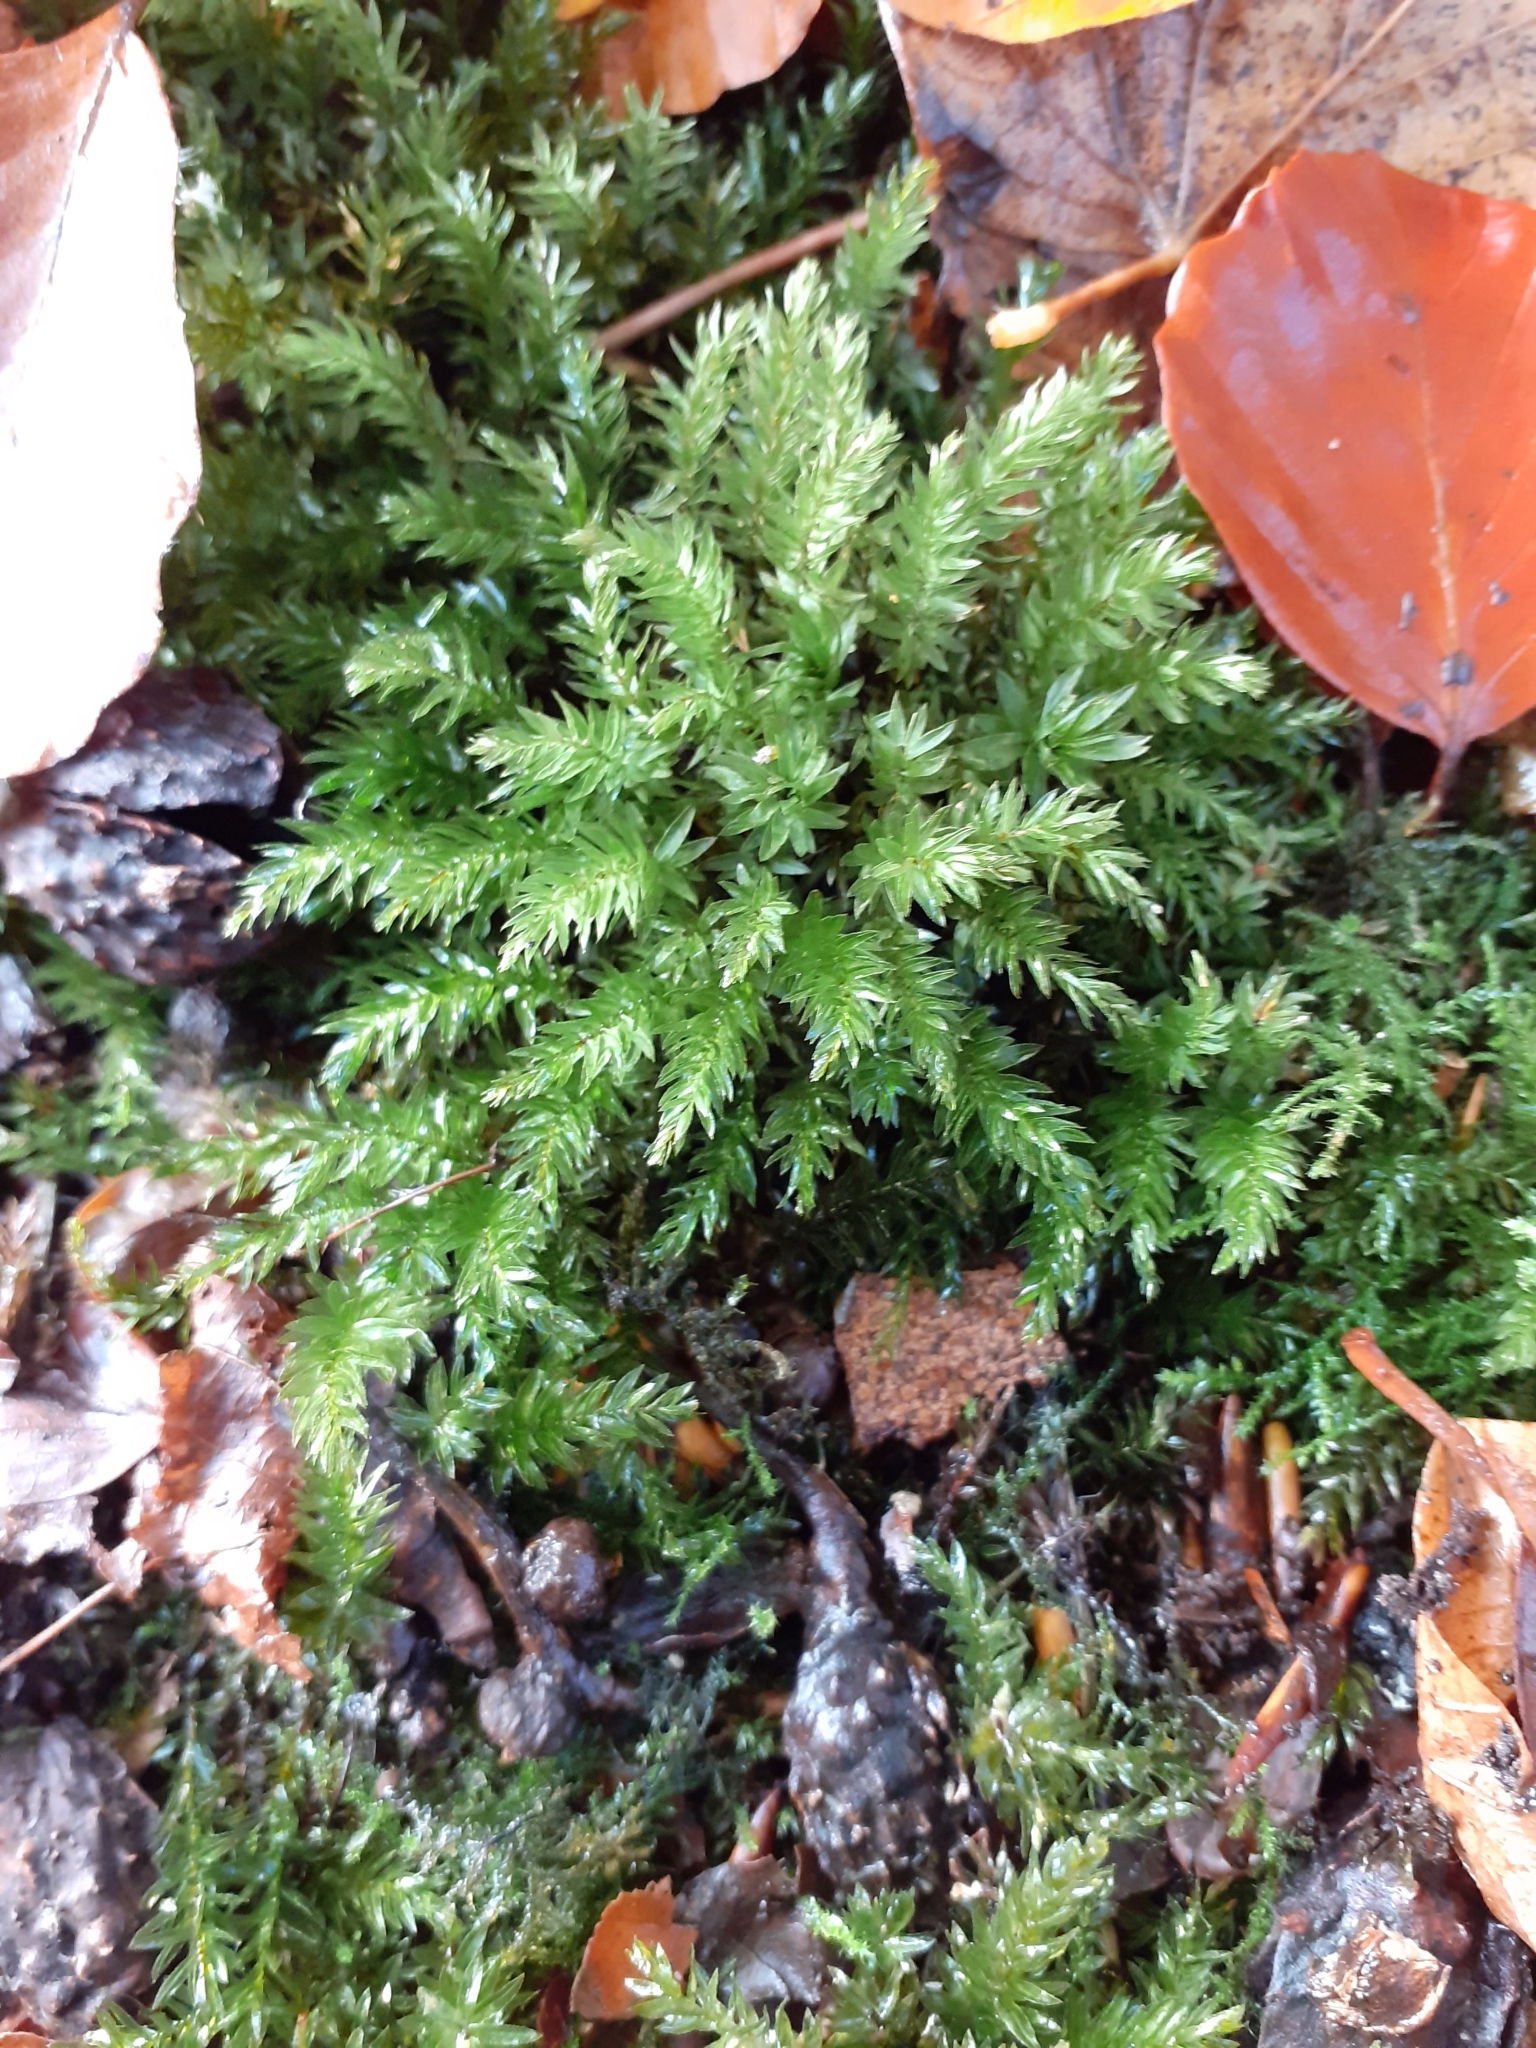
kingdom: Plantae
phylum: Bryophyta
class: Bryopsida
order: Bryales
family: Mniaceae
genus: Mnium
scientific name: Mnium hornum
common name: Swan's-neck leafy moss
